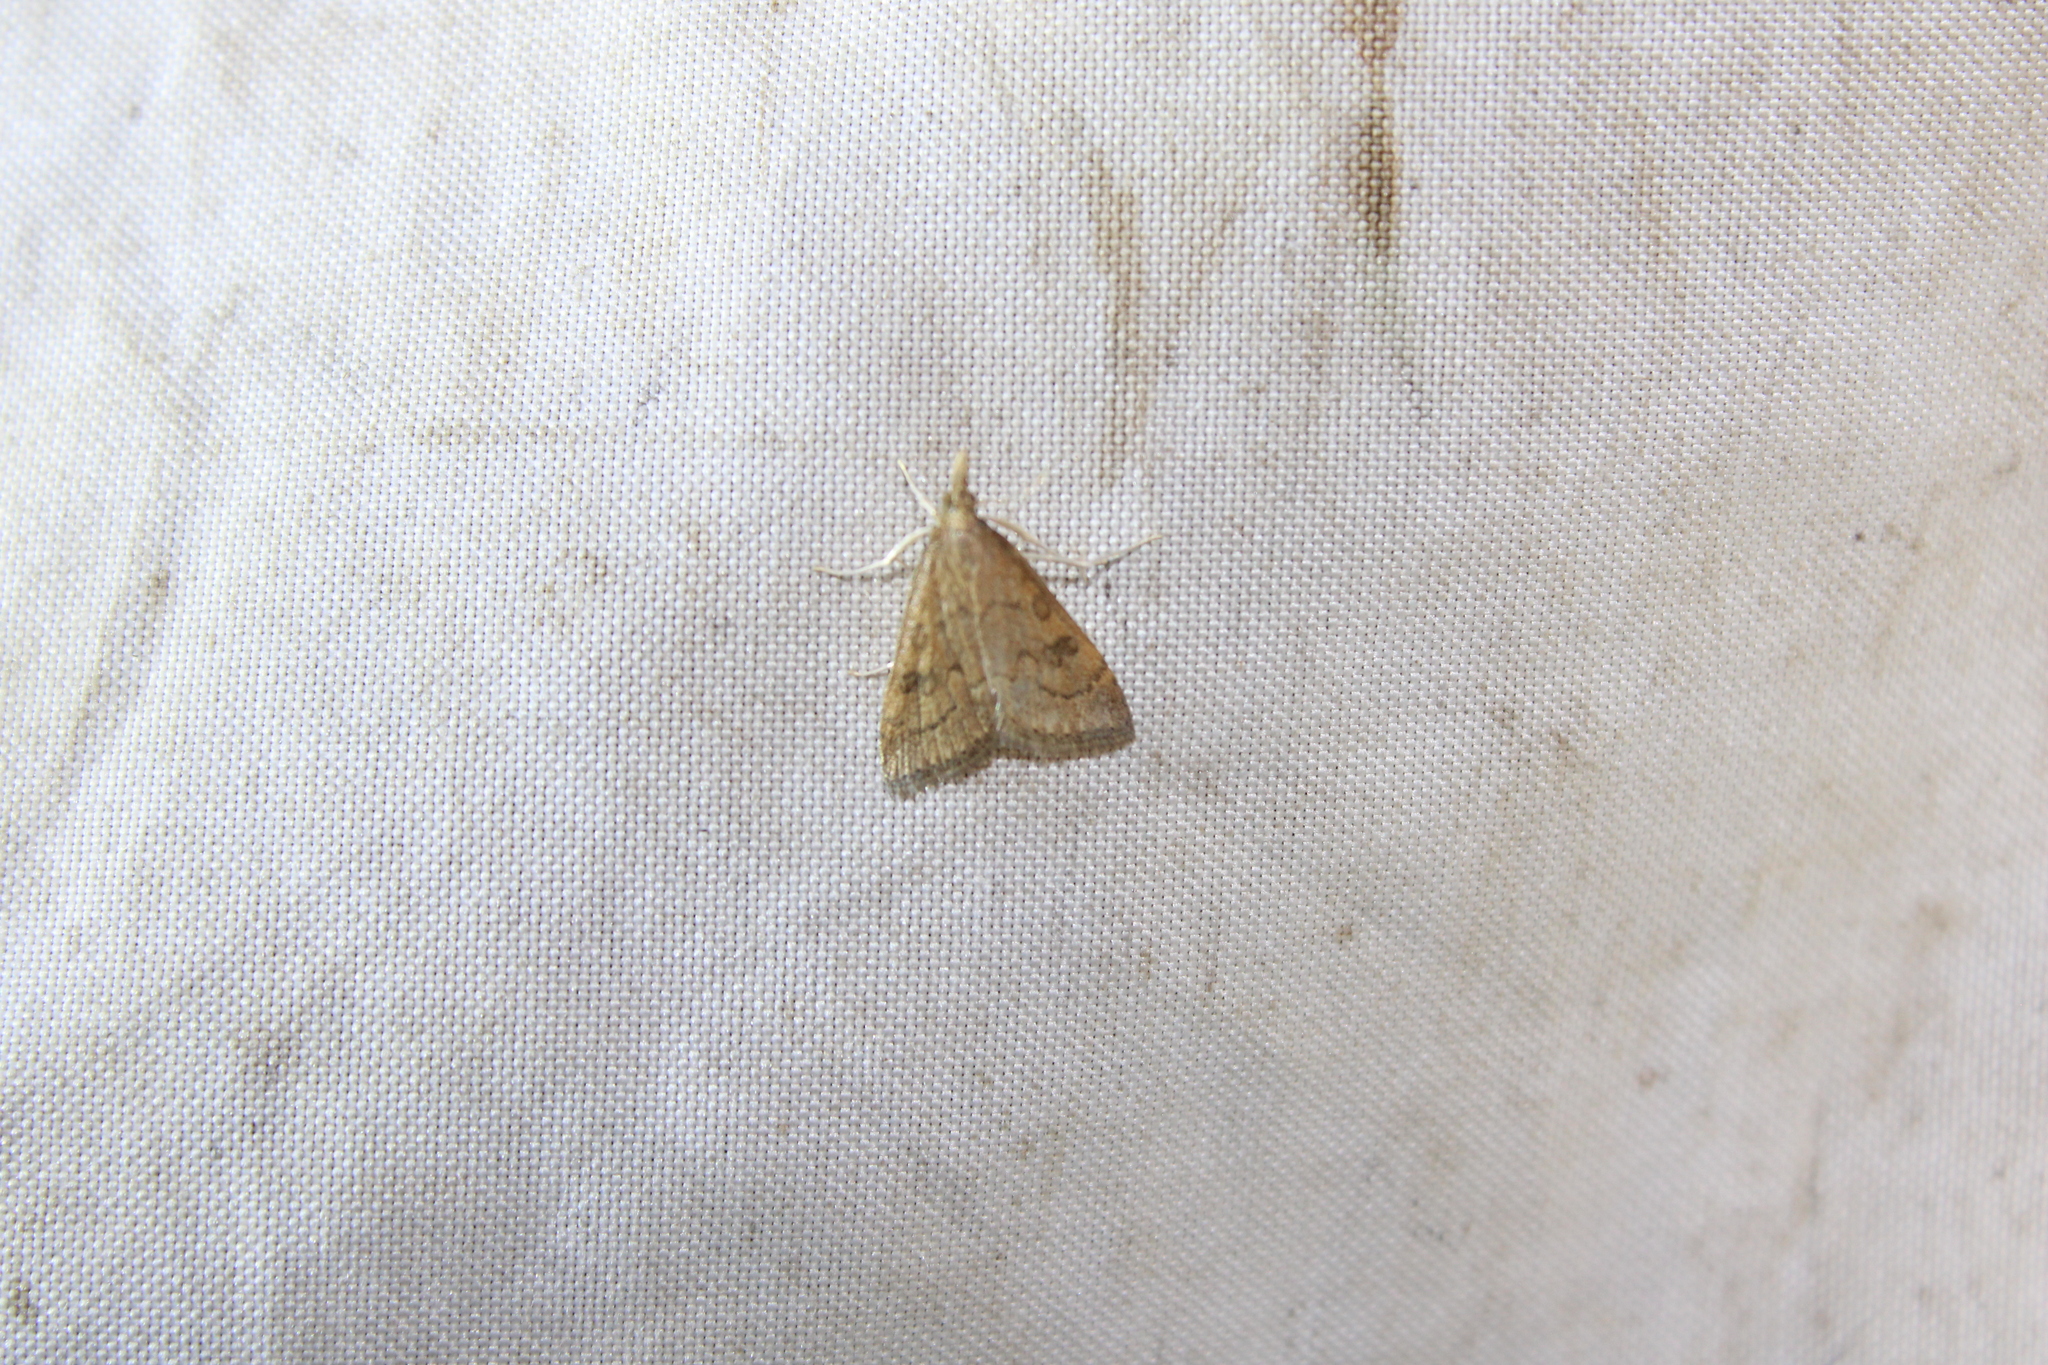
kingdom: Animalia
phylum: Arthropoda
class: Insecta
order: Lepidoptera
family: Crambidae
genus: Udea
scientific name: Udea rubigalis
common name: Celery leaftier moth
